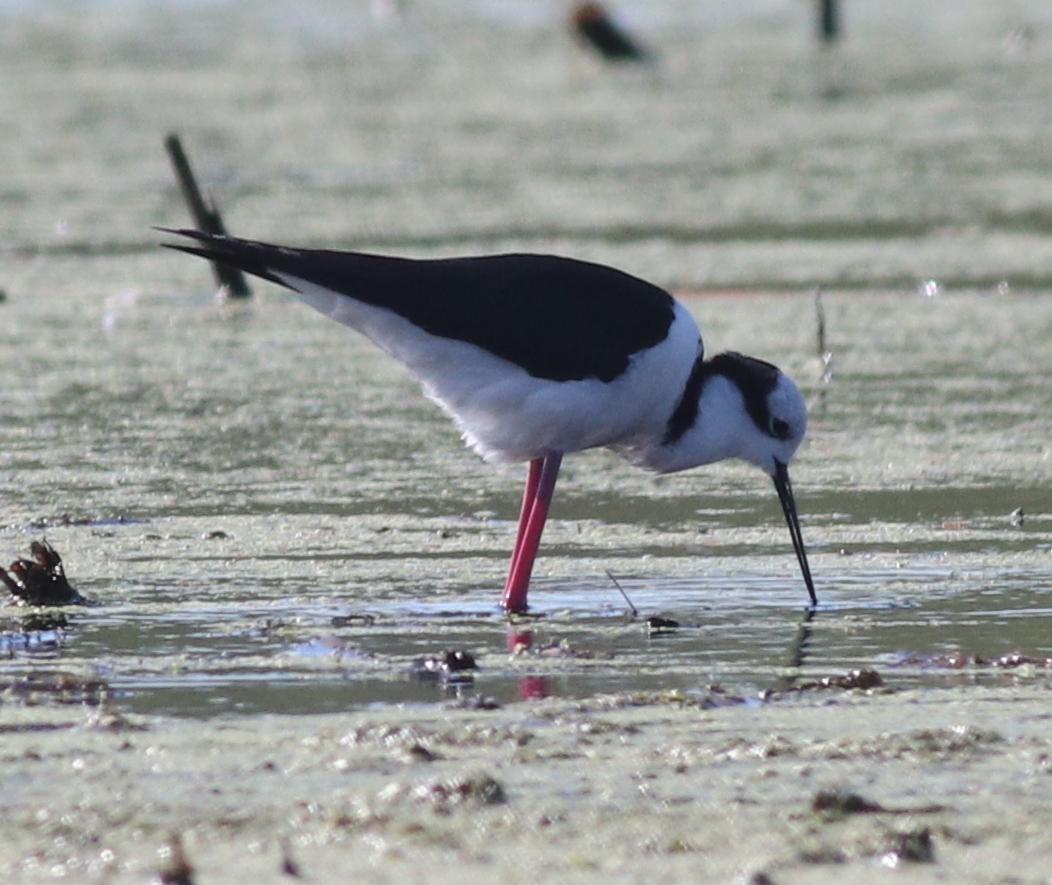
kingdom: Animalia
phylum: Chordata
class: Aves
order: Charadriiformes
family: Recurvirostridae
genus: Himantopus
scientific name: Himantopus mexicanus
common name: Black-necked stilt
